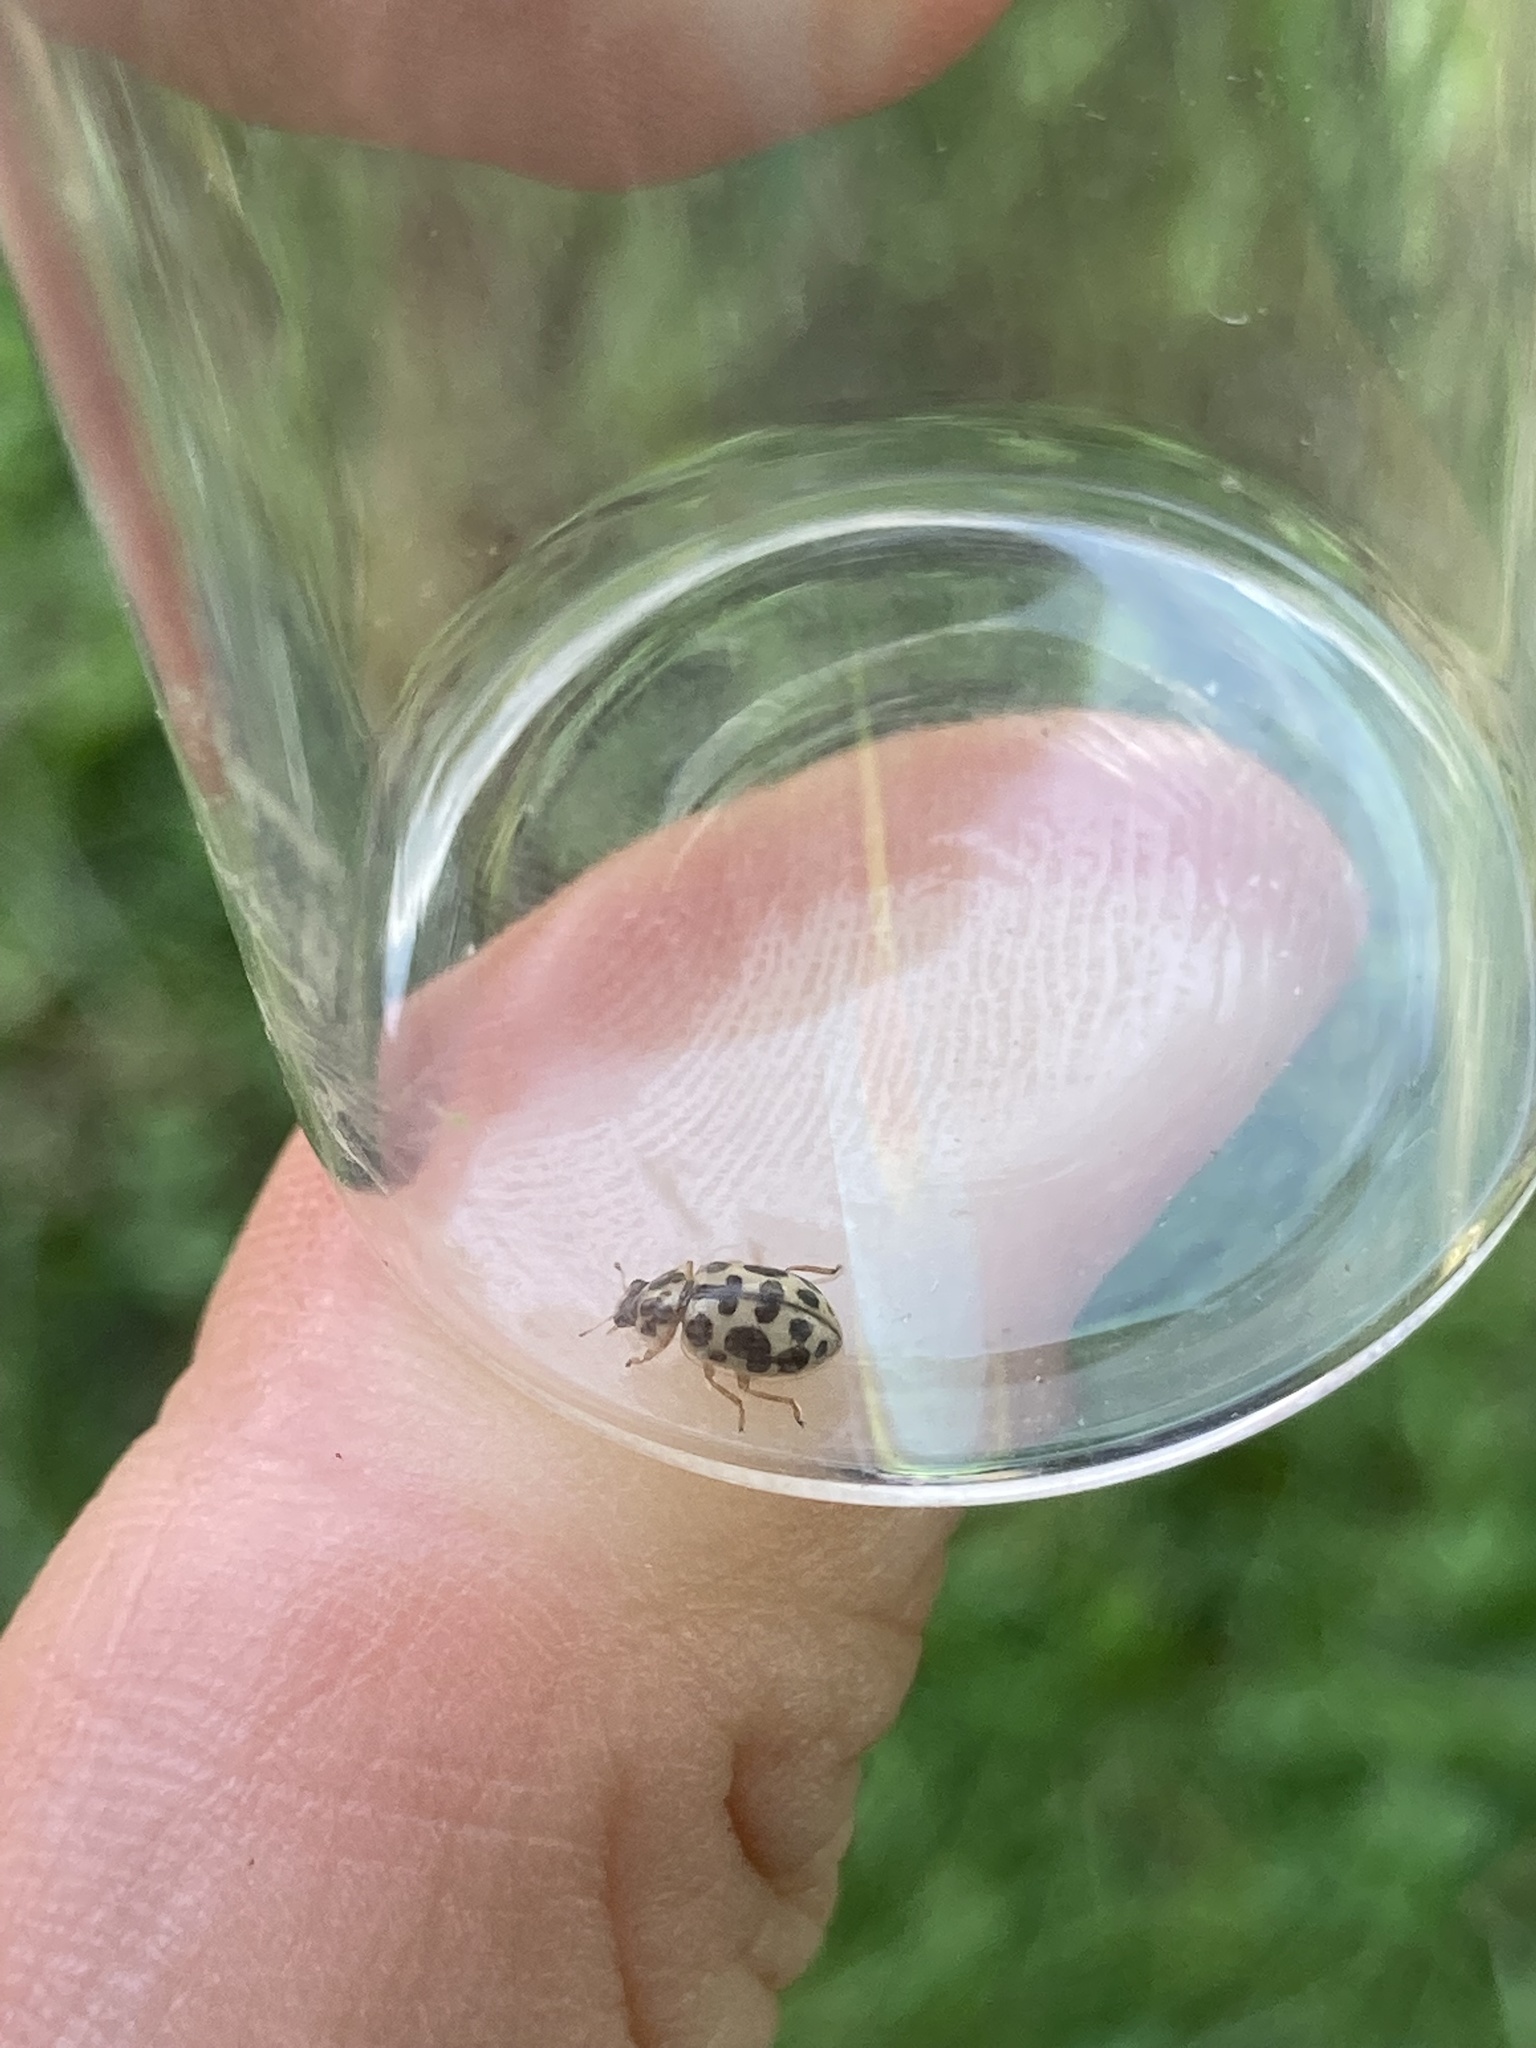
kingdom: Animalia
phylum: Arthropoda
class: Insecta
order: Coleoptera
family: Coccinellidae
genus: Anisosticta
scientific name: Anisosticta bitriangularis
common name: Marsh lady beetle
